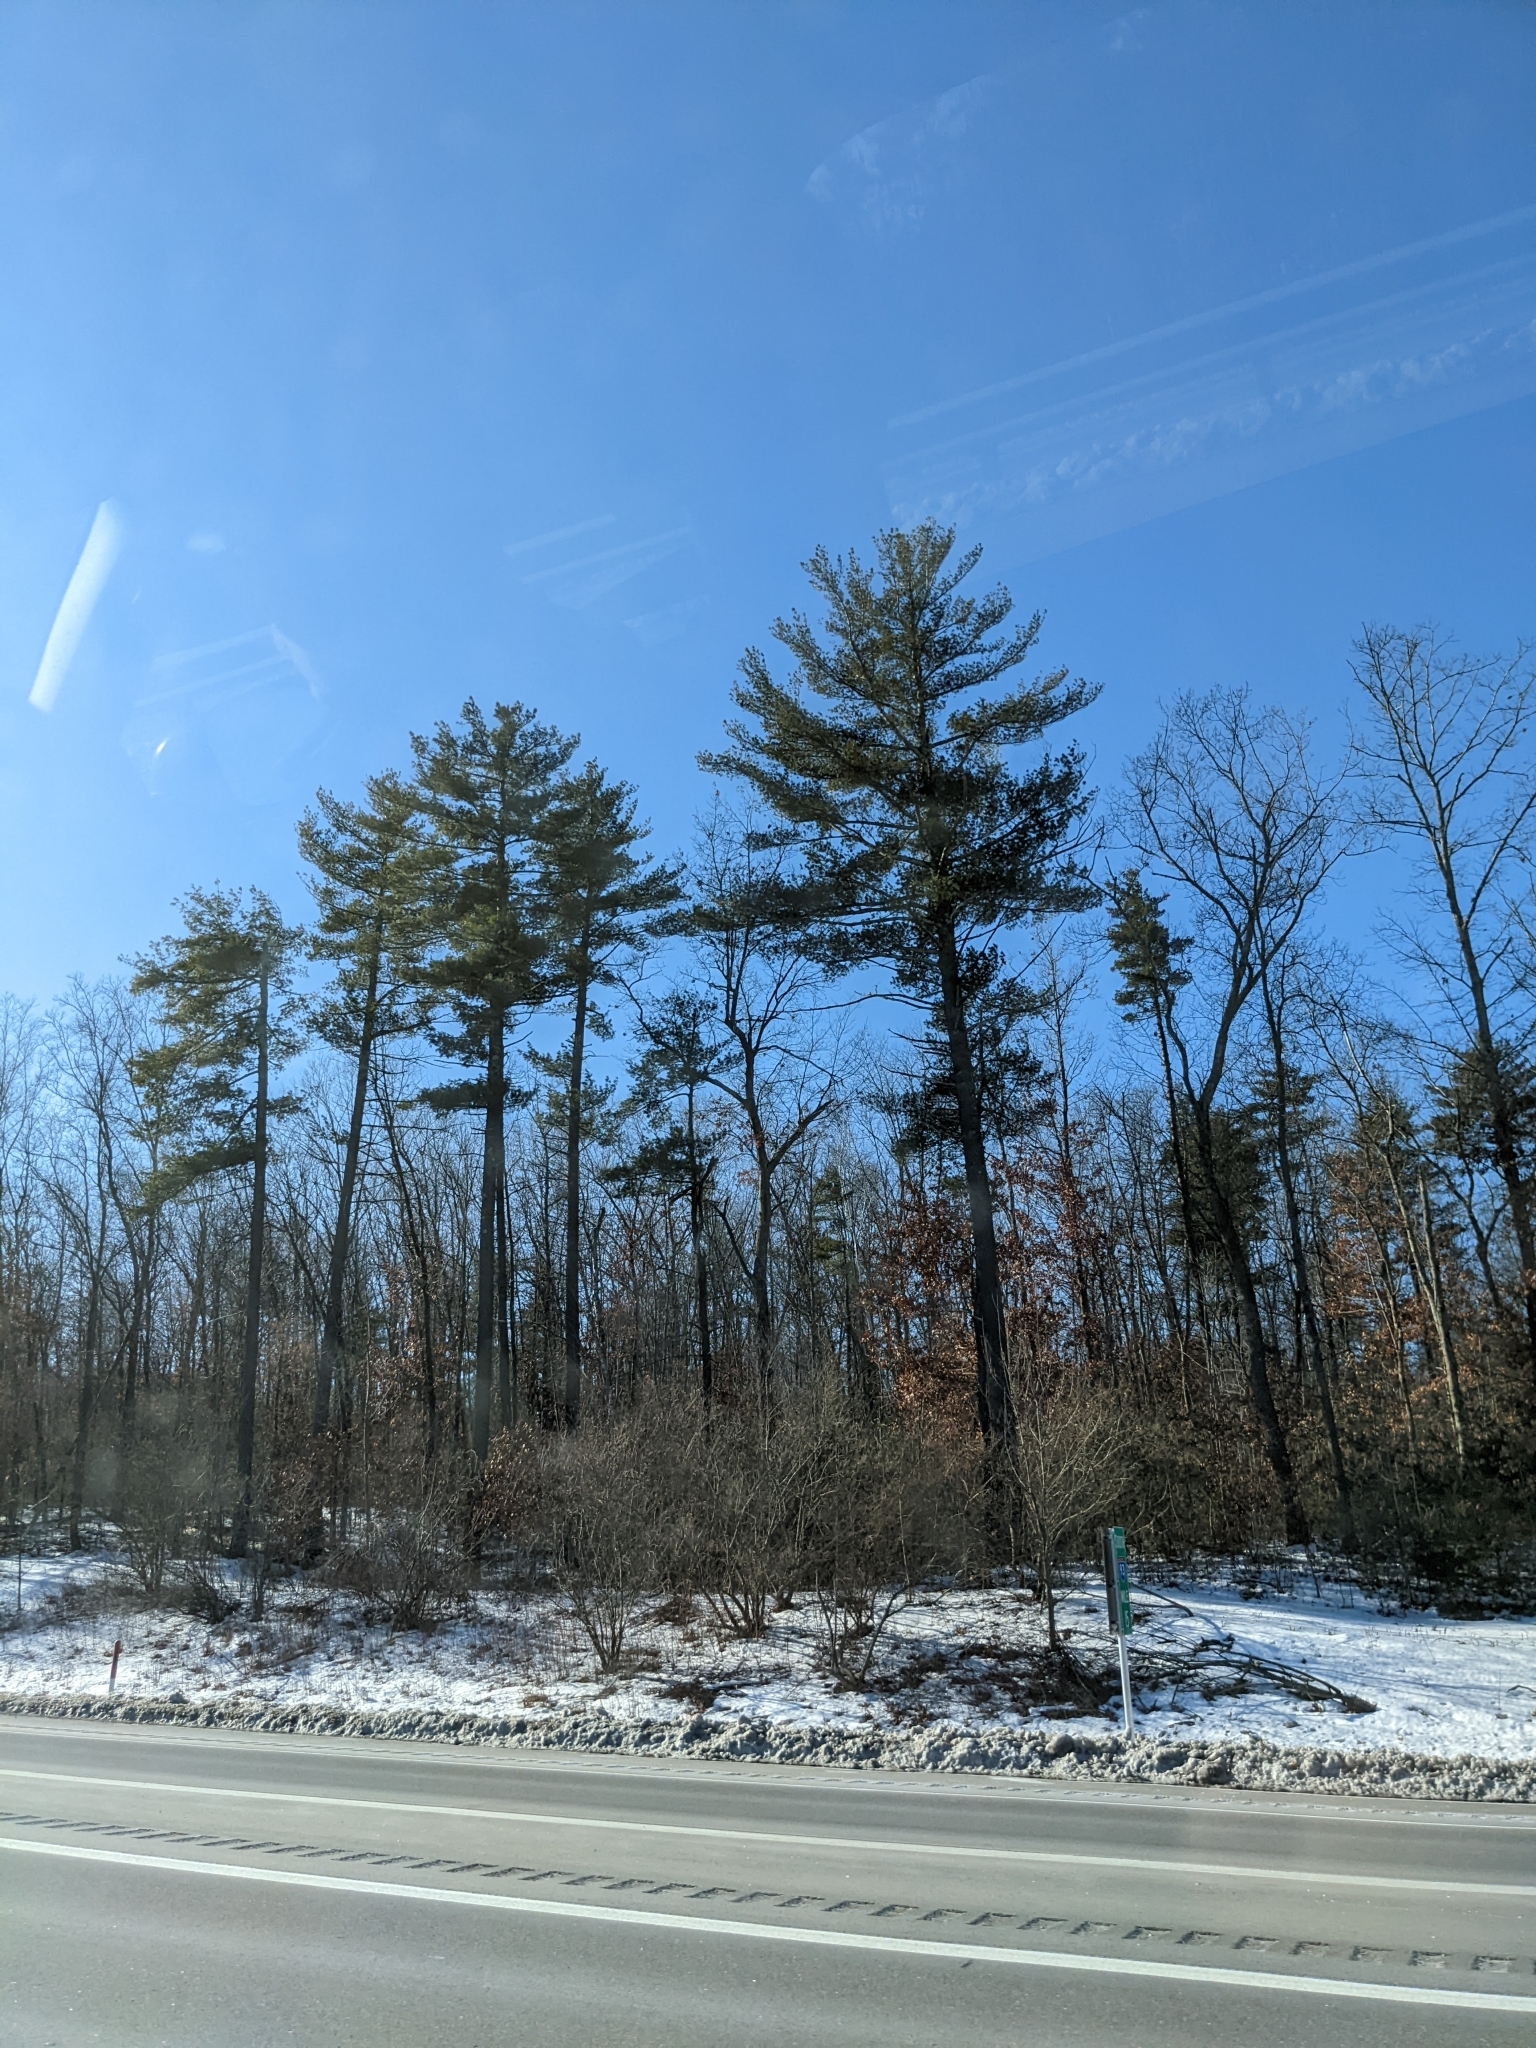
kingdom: Plantae
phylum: Tracheophyta
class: Pinopsida
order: Pinales
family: Pinaceae
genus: Pinus
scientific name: Pinus strobus
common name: Weymouth pine
